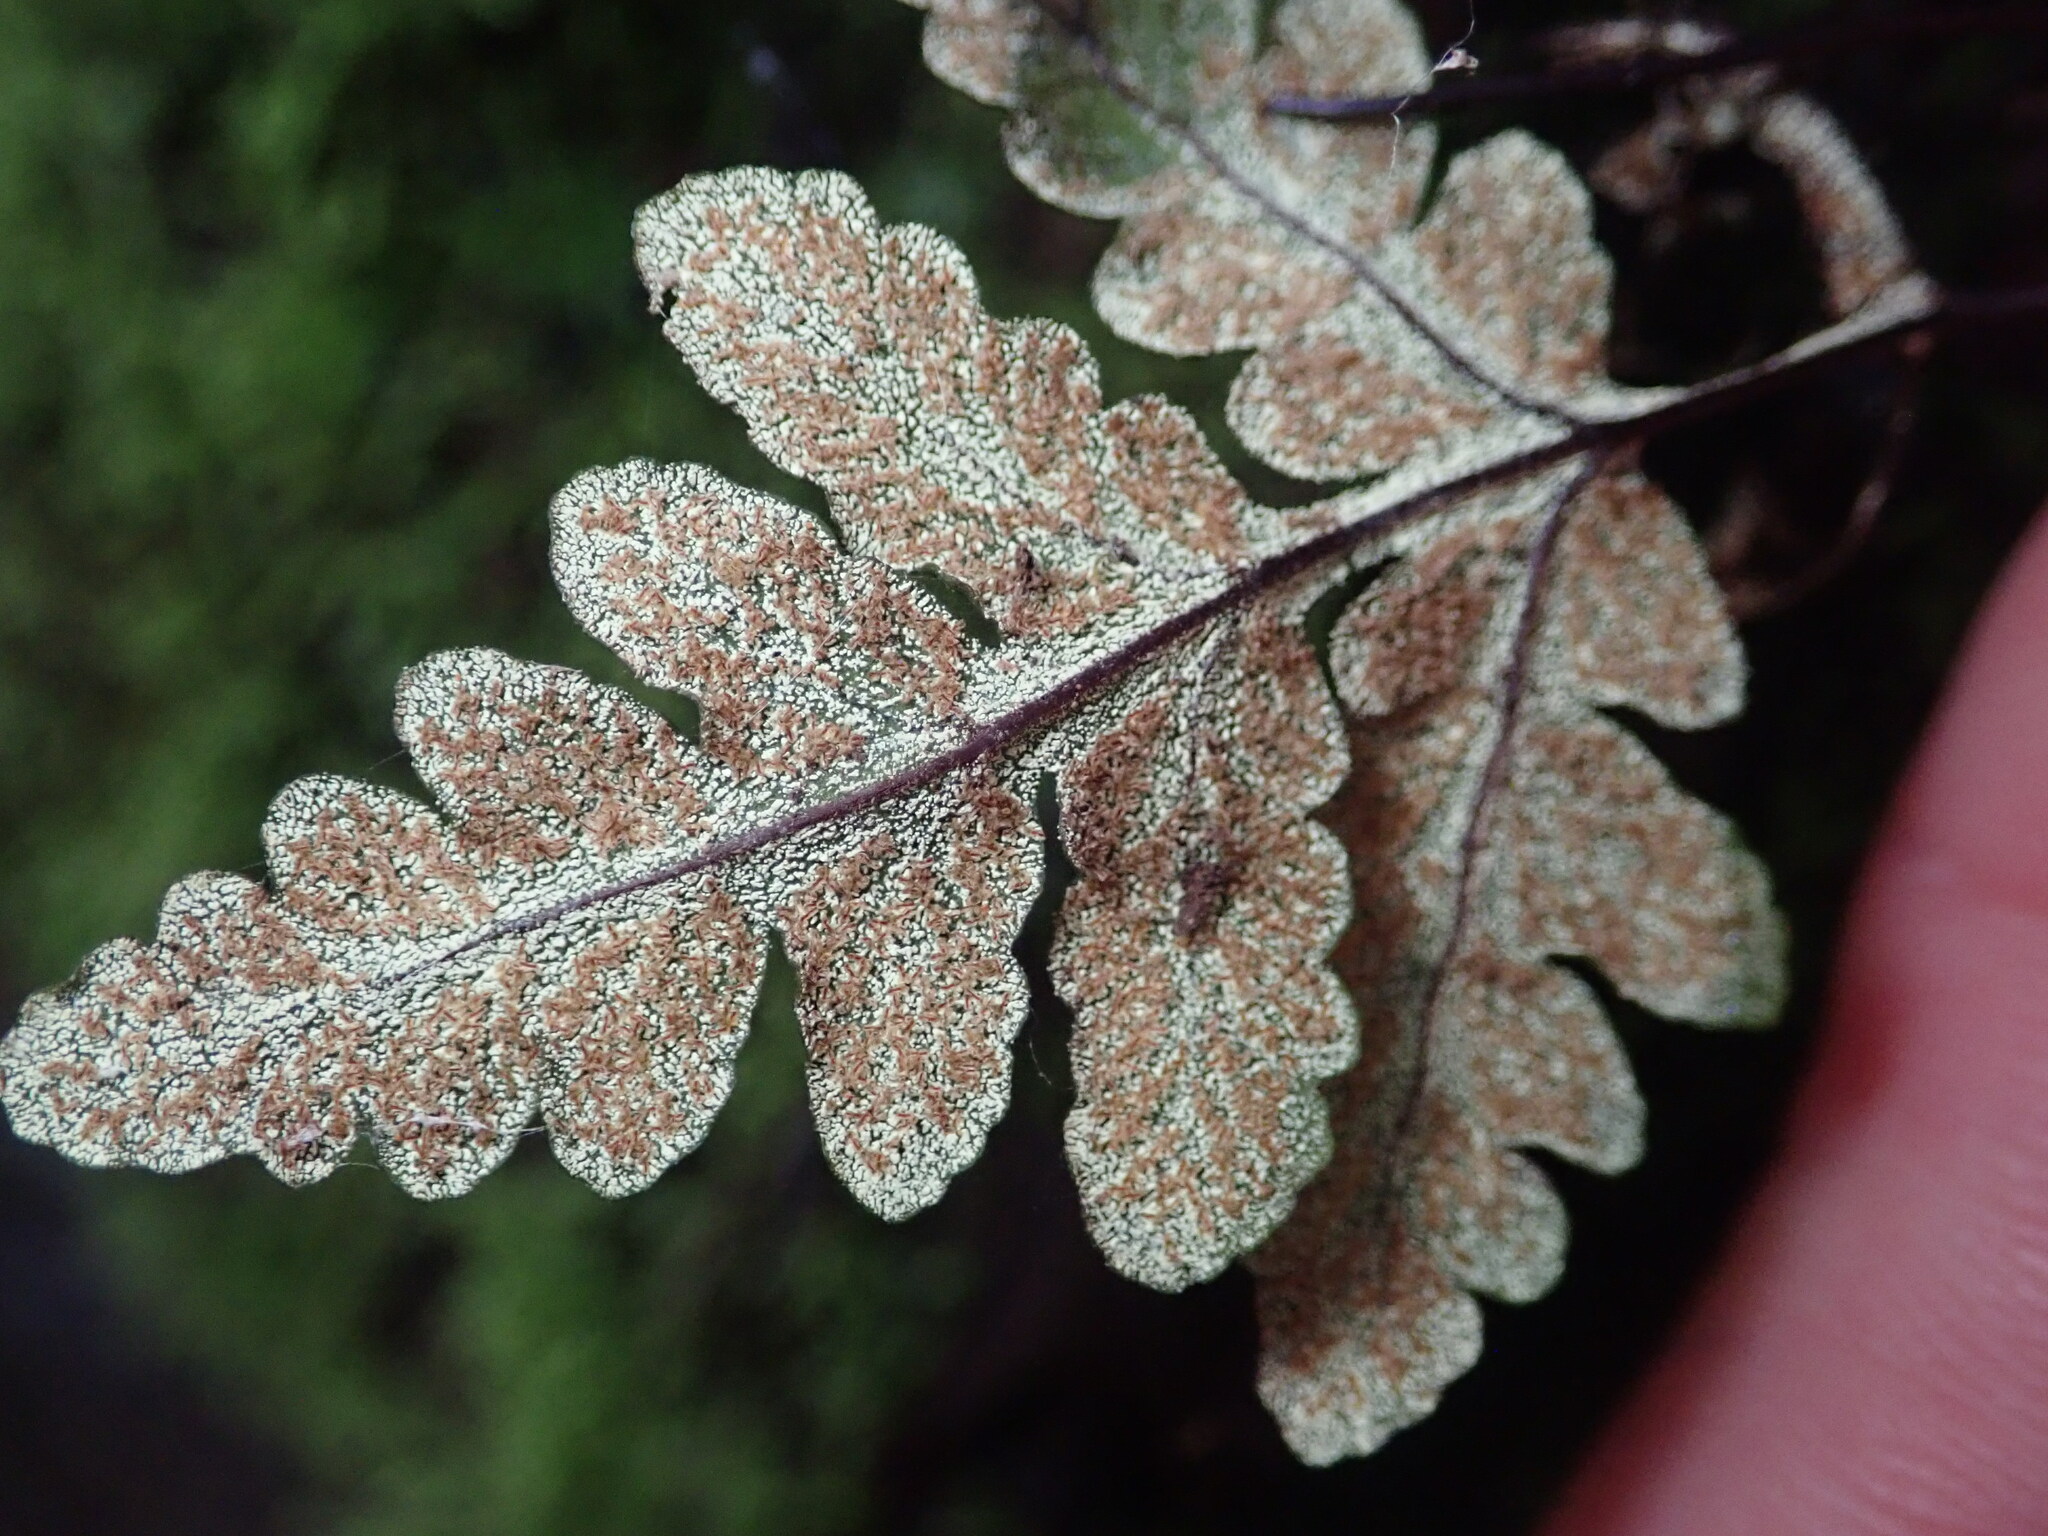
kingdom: Plantae
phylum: Tracheophyta
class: Polypodiopsida
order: Polypodiales
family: Pteridaceae
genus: Pentagramma
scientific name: Pentagramma triangularis
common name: Gold fern
